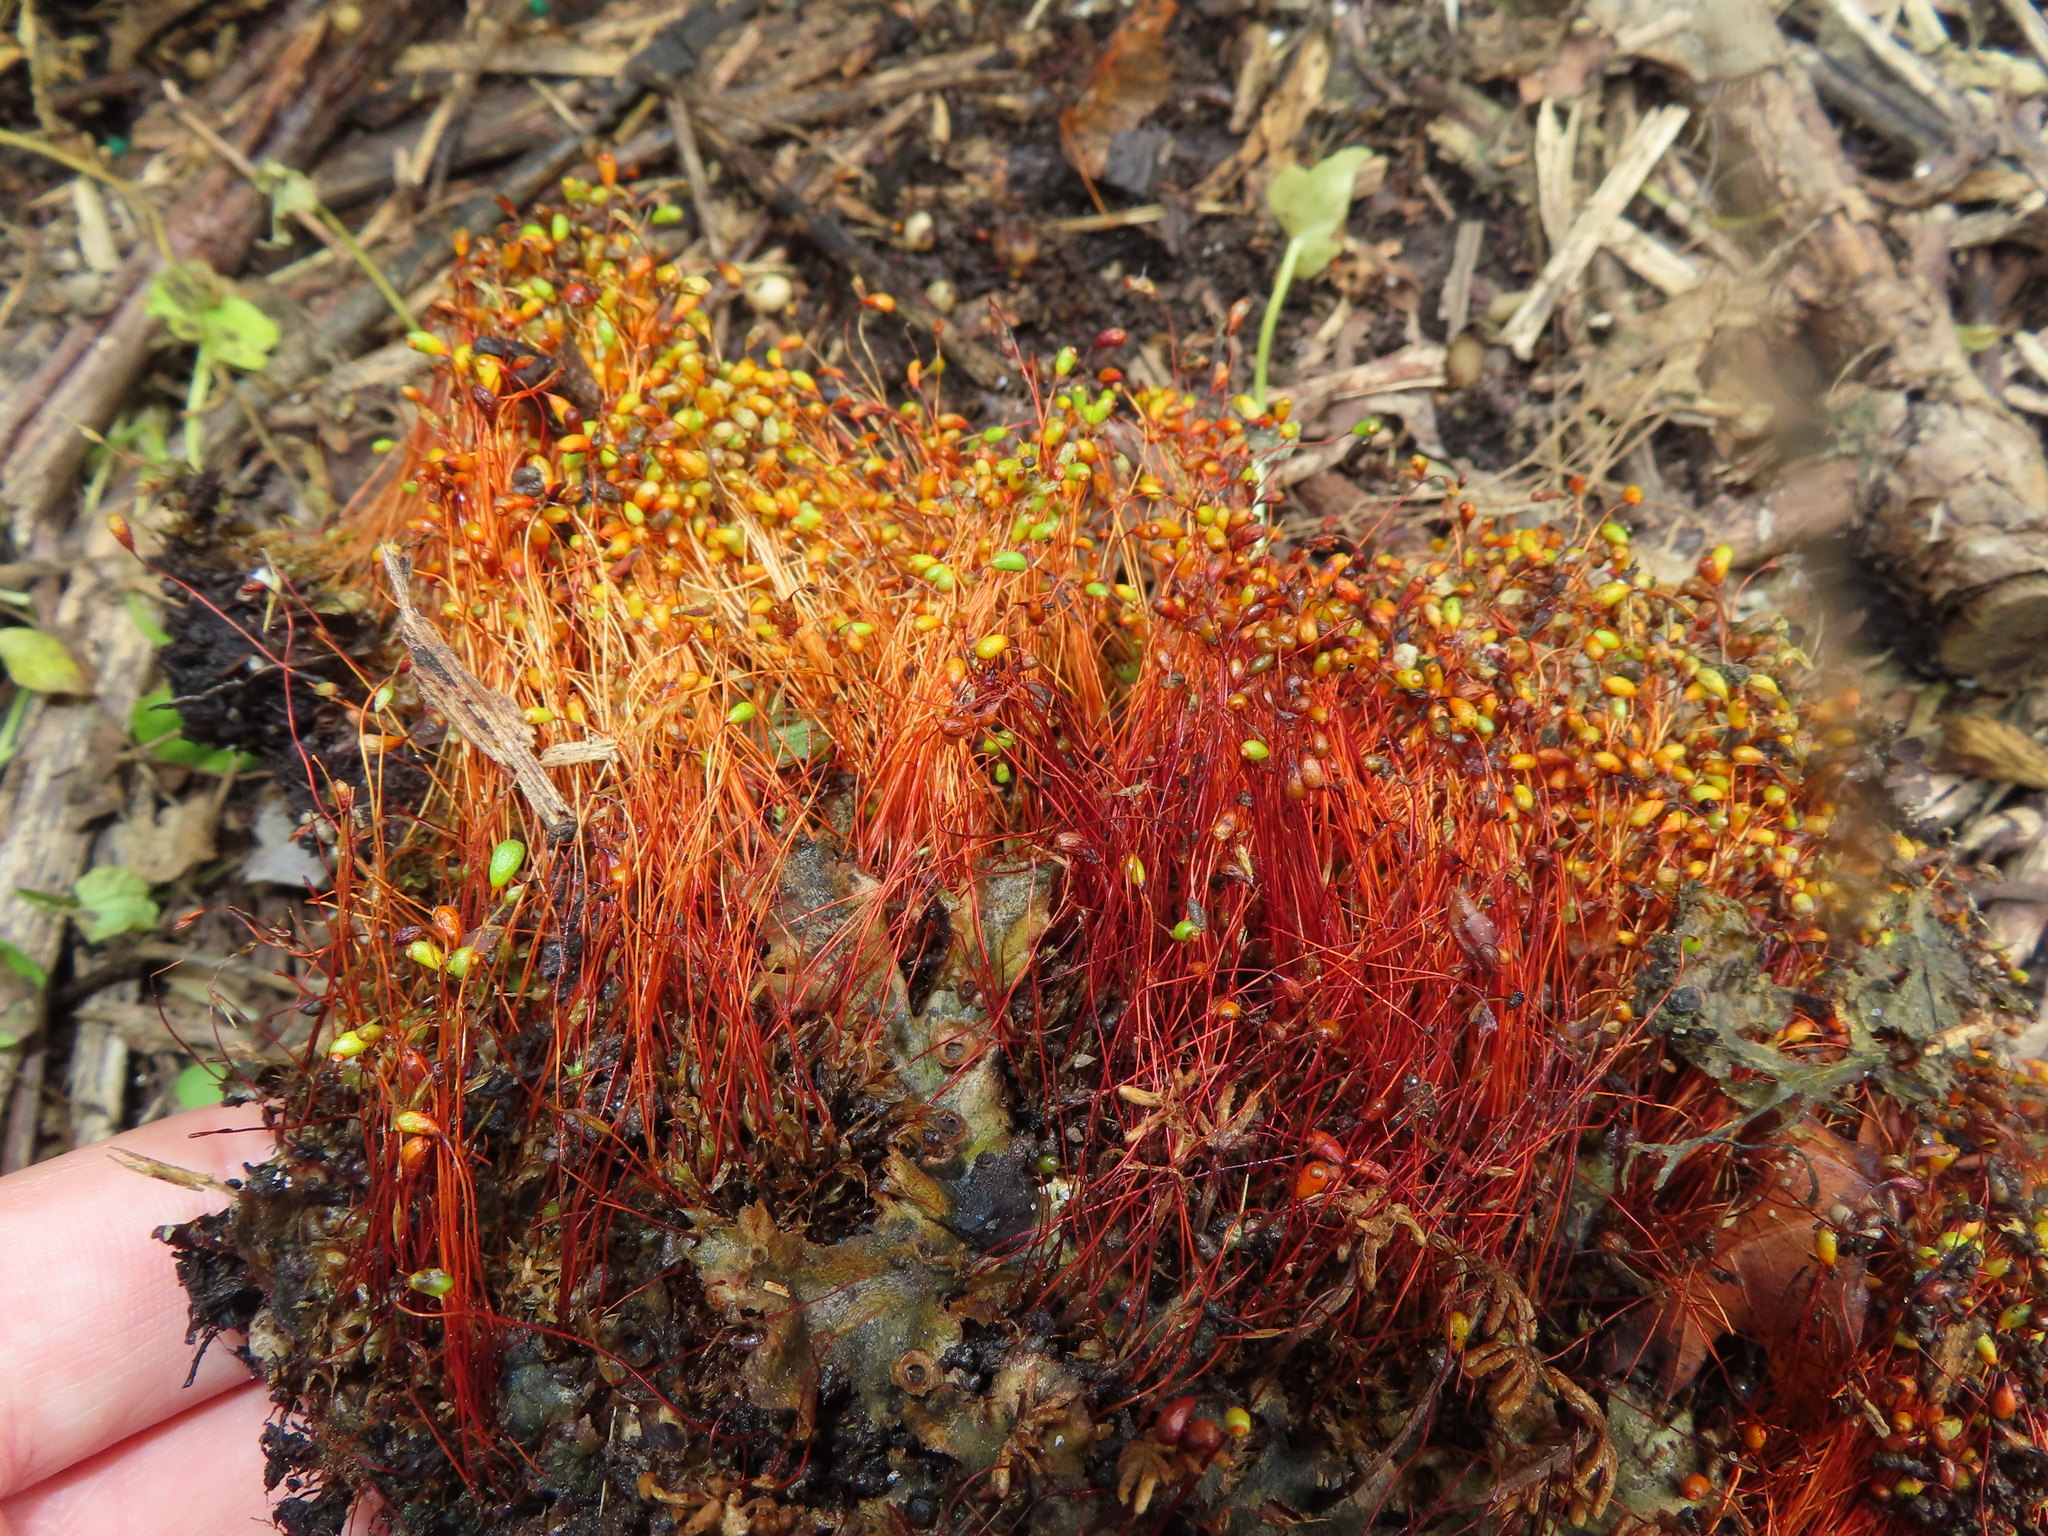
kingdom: Plantae
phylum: Bryophyta
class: Bryopsida
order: Funariales
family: Funariaceae
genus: Funaria
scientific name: Funaria hygrometrica
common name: Common cord moss
